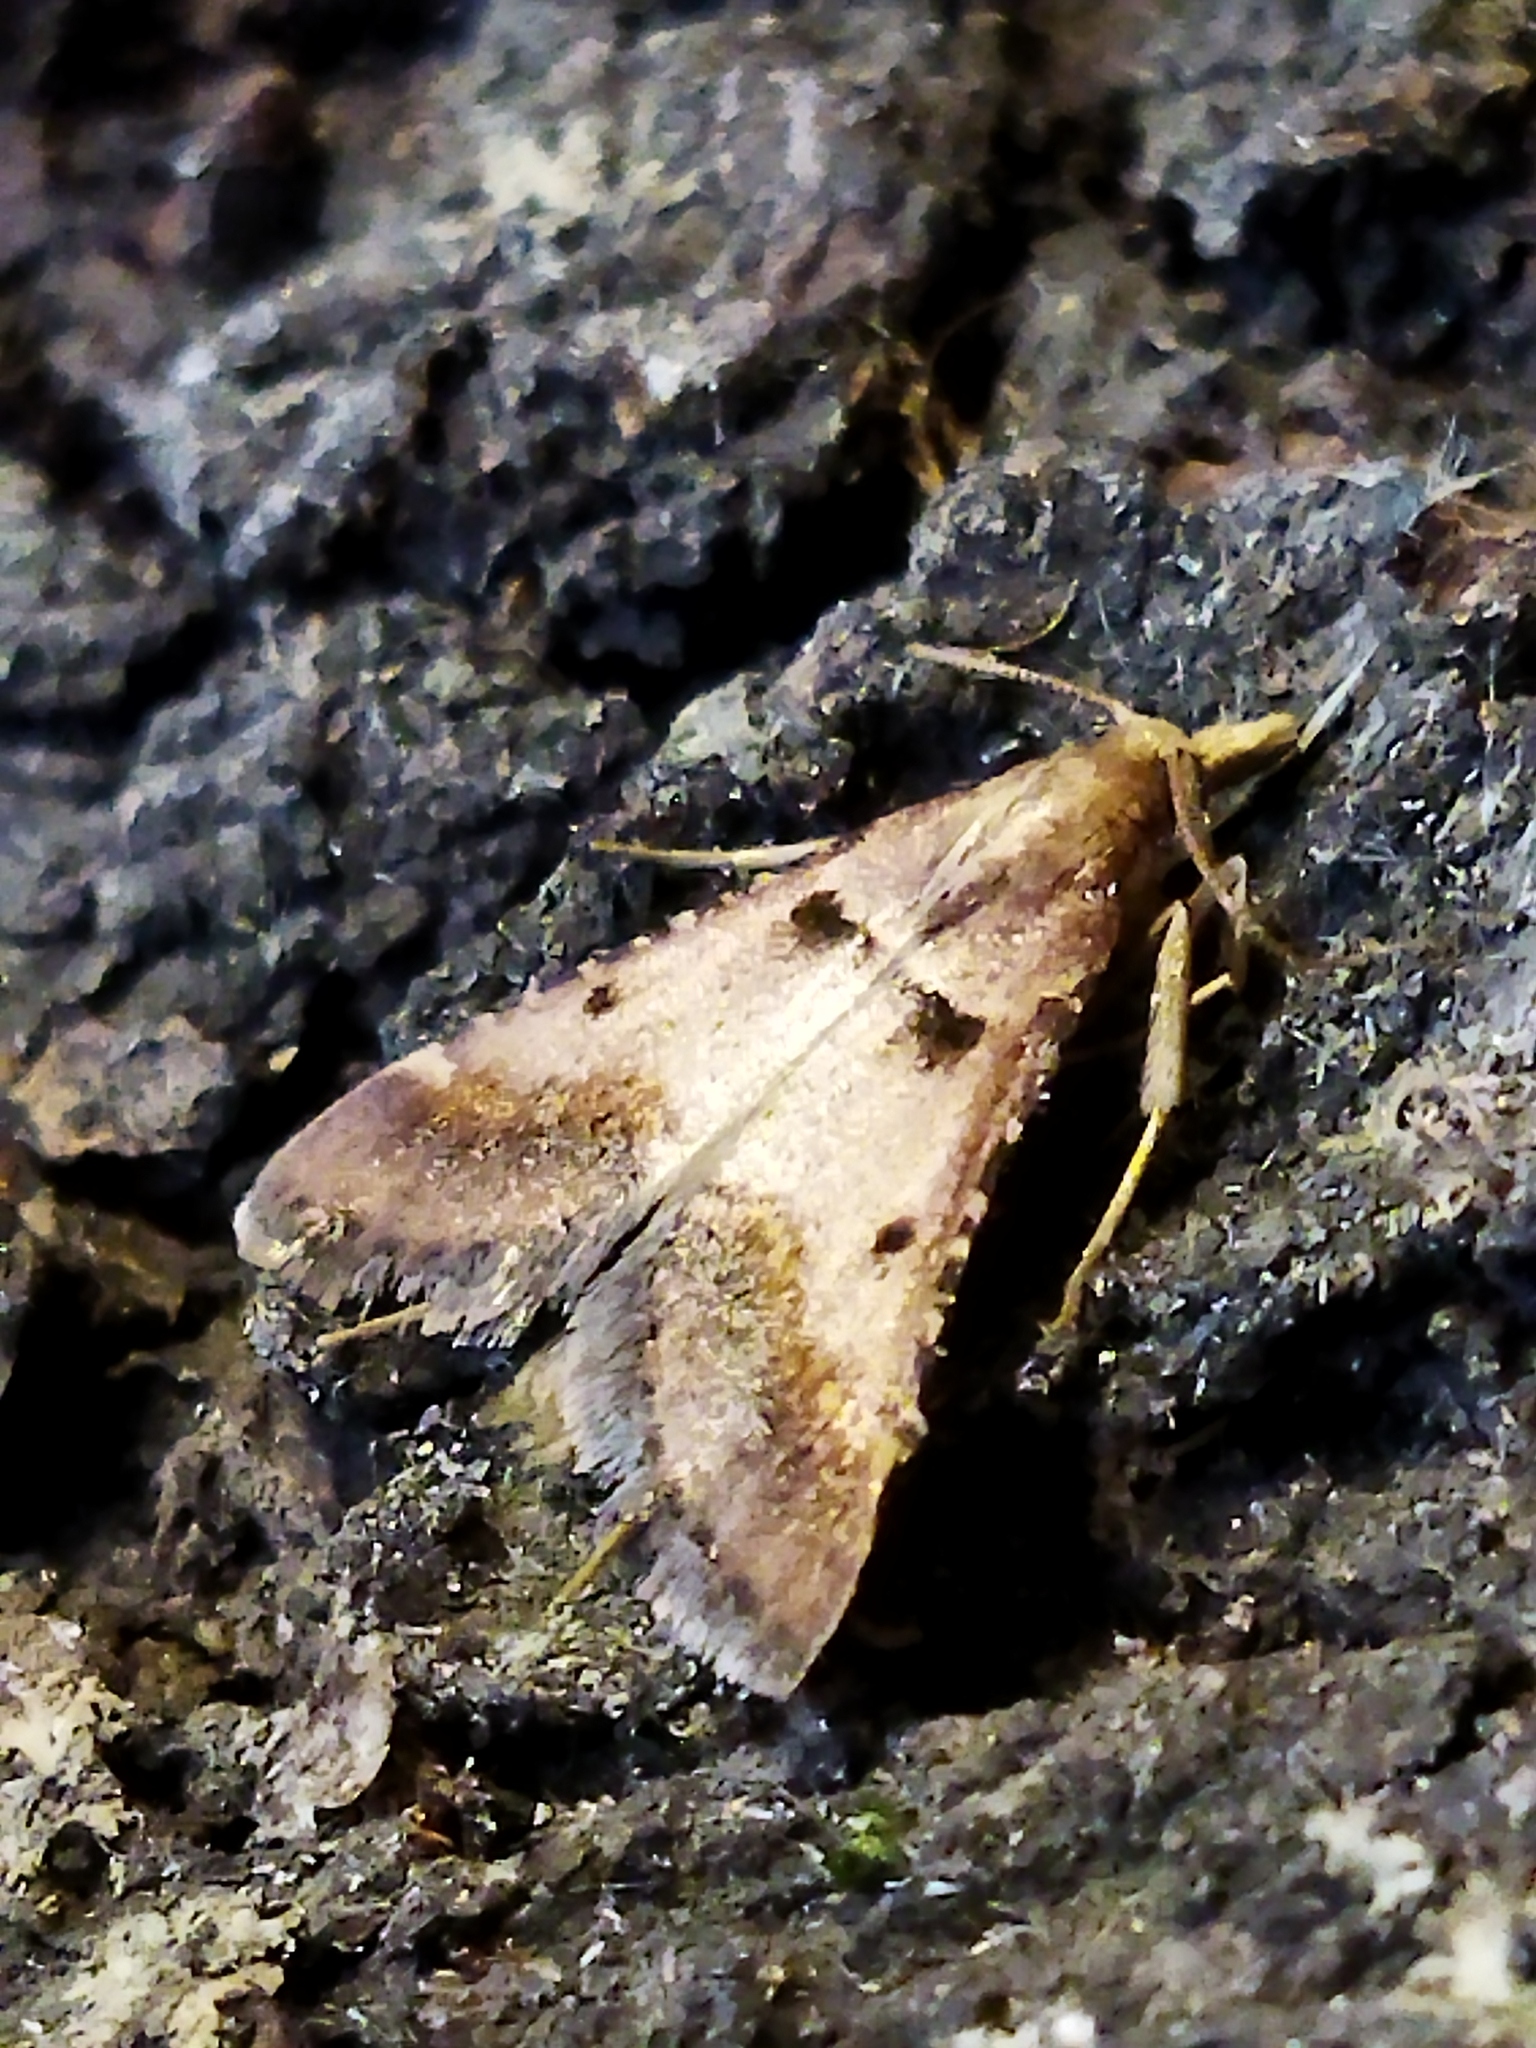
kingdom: Animalia
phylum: Arthropoda
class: Insecta
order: Lepidoptera
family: Pyralidae
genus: Stemmatophora
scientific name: Stemmatophora brunnealis
